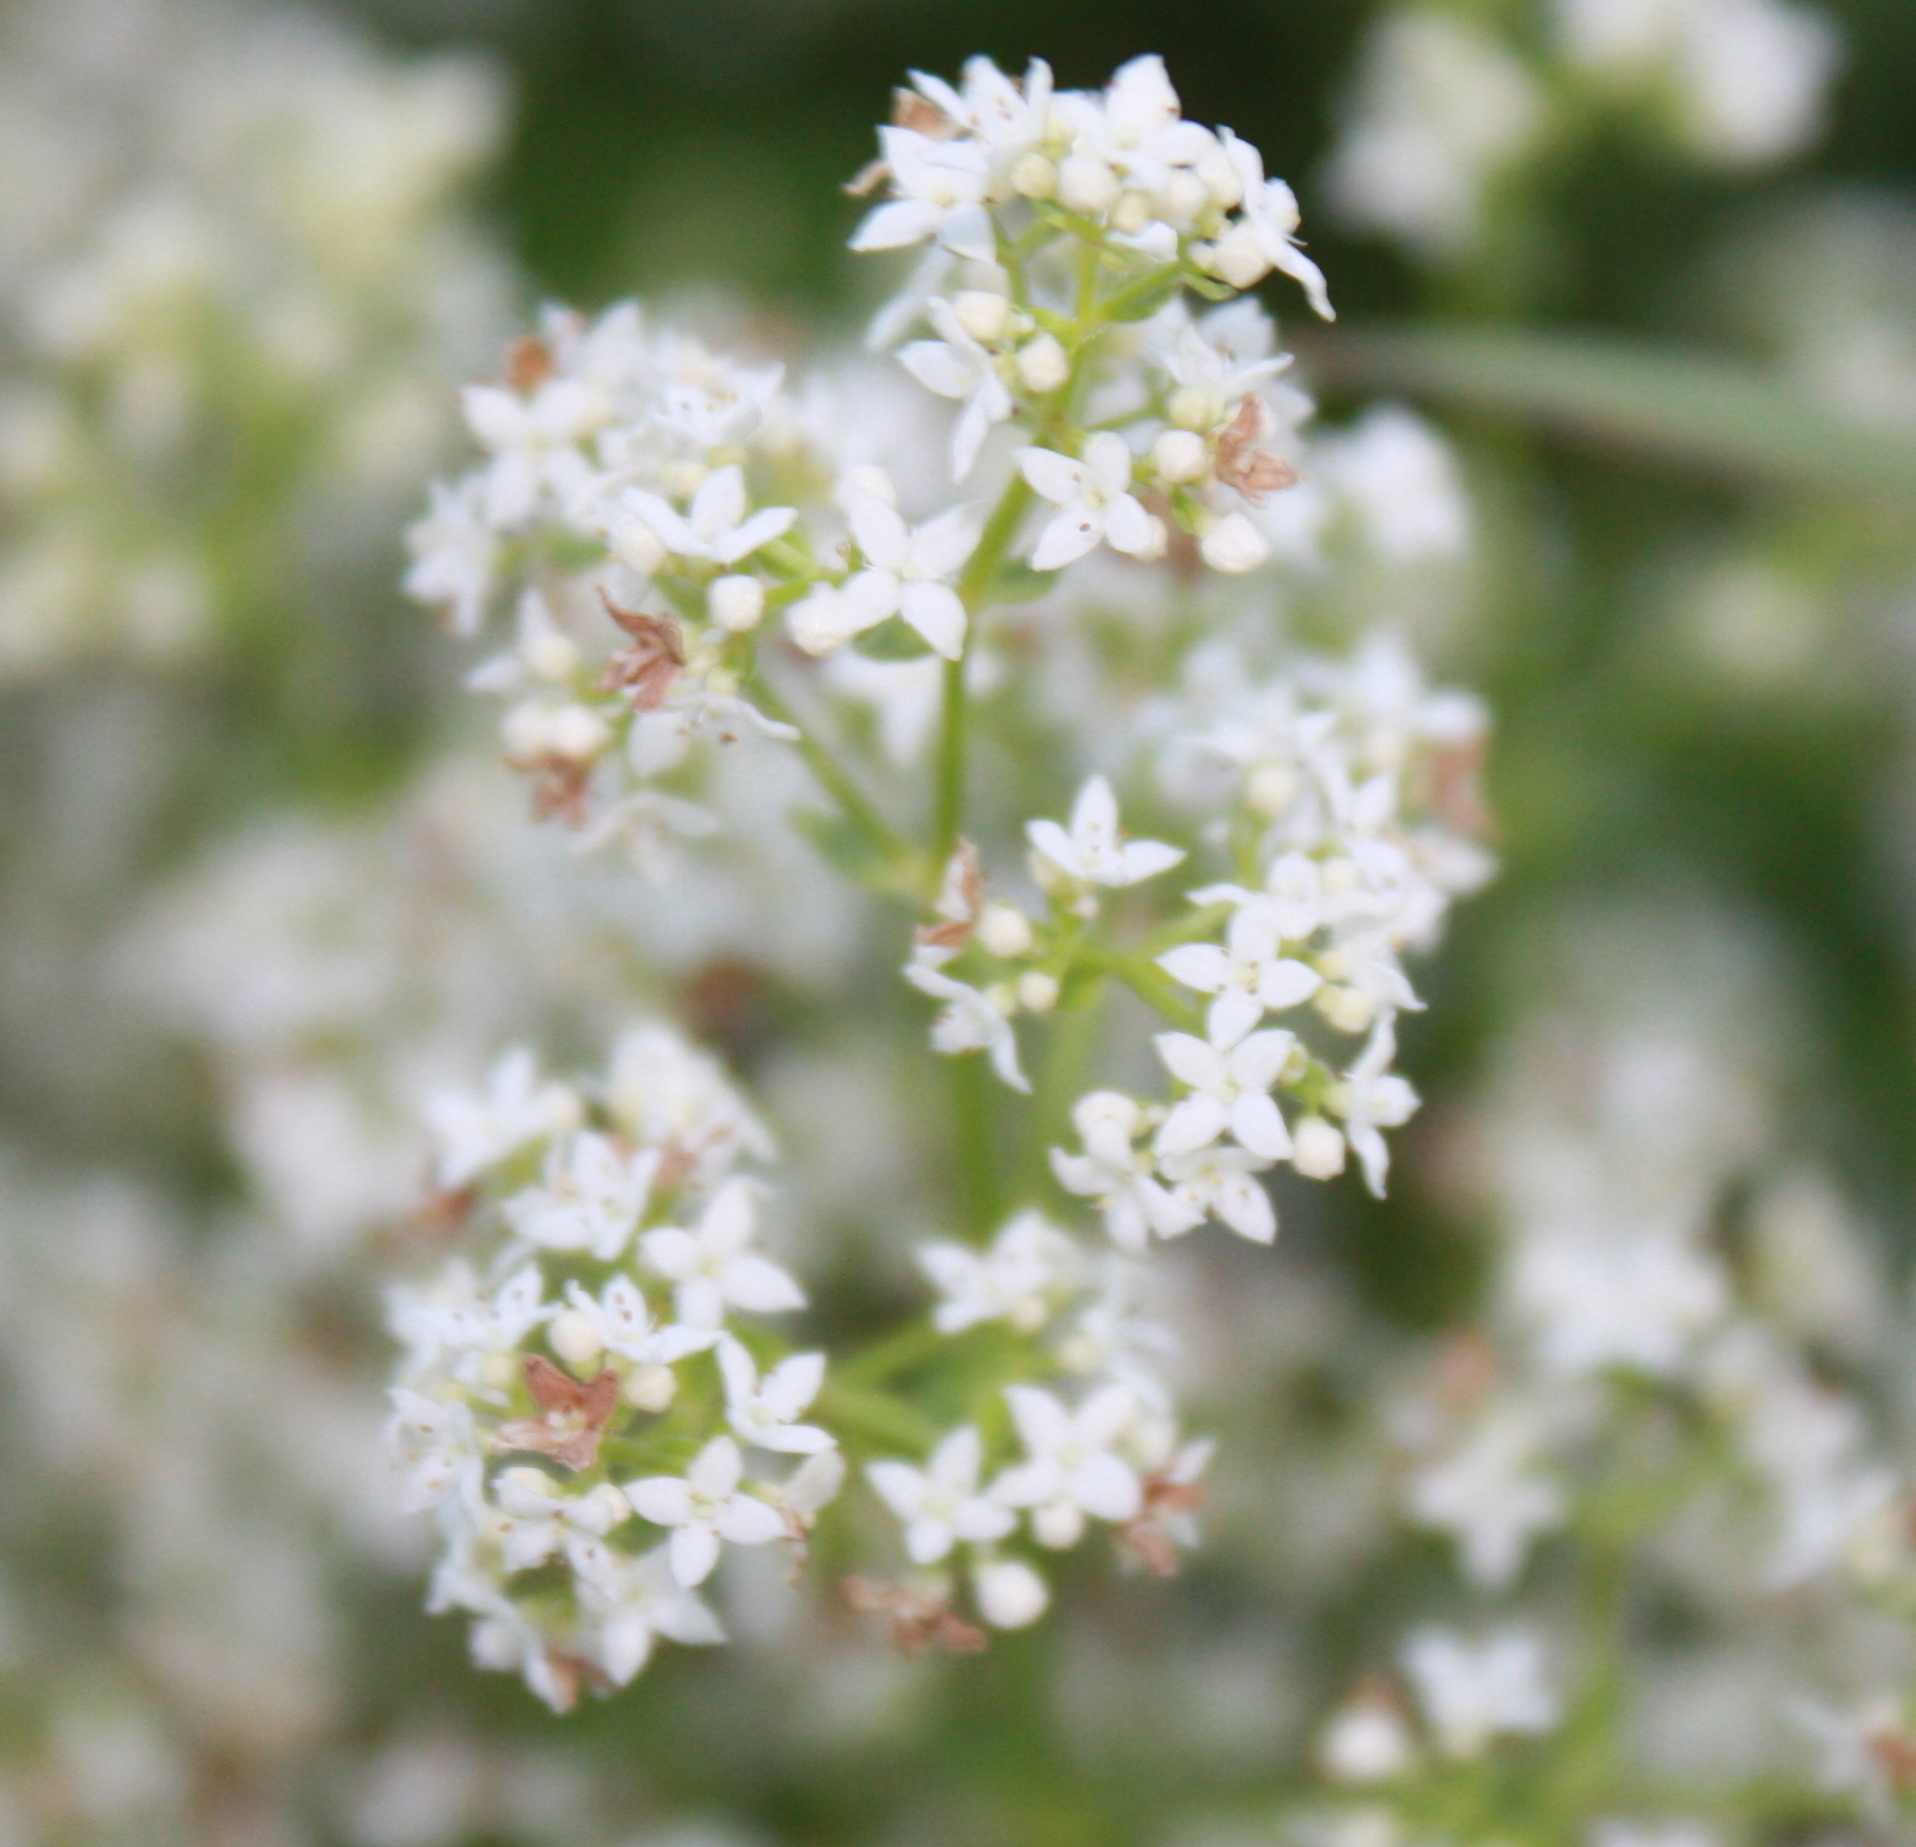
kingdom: Plantae
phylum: Tracheophyta
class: Magnoliopsida
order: Gentianales
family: Rubiaceae
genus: Galium
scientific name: Galium boreale
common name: Northern bedstraw
